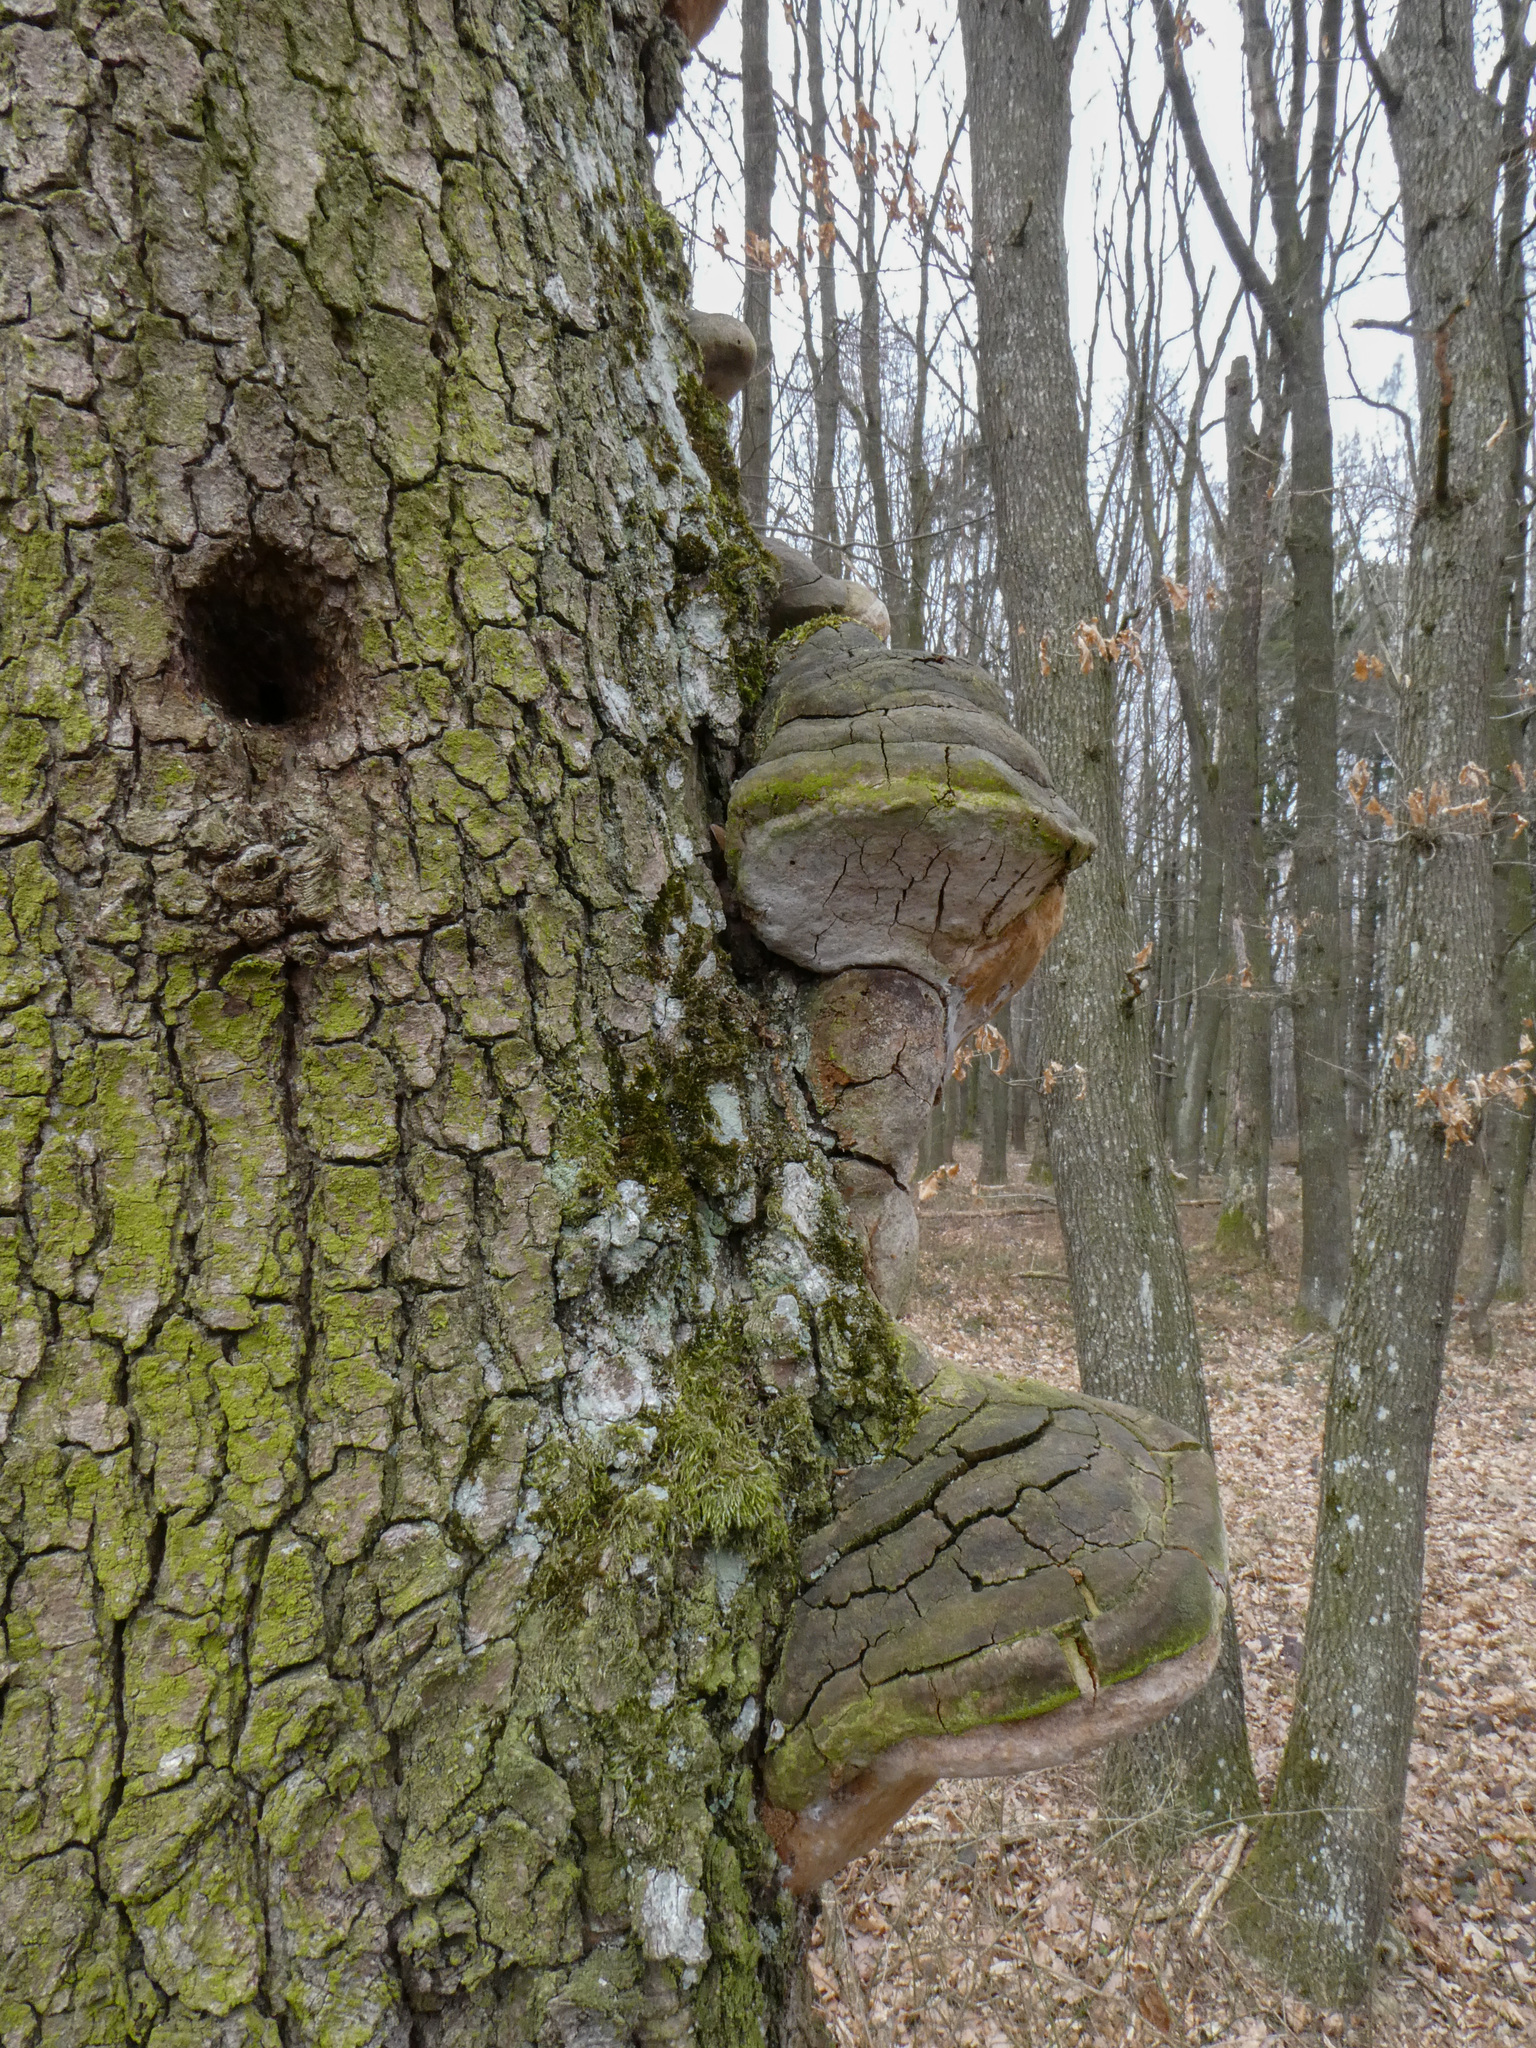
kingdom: Fungi
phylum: Basidiomycota
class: Agaricomycetes
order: Hymenochaetales
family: Hymenochaetaceae
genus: Fomitiporia
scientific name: Fomitiporia robusta
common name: Robust bracket
